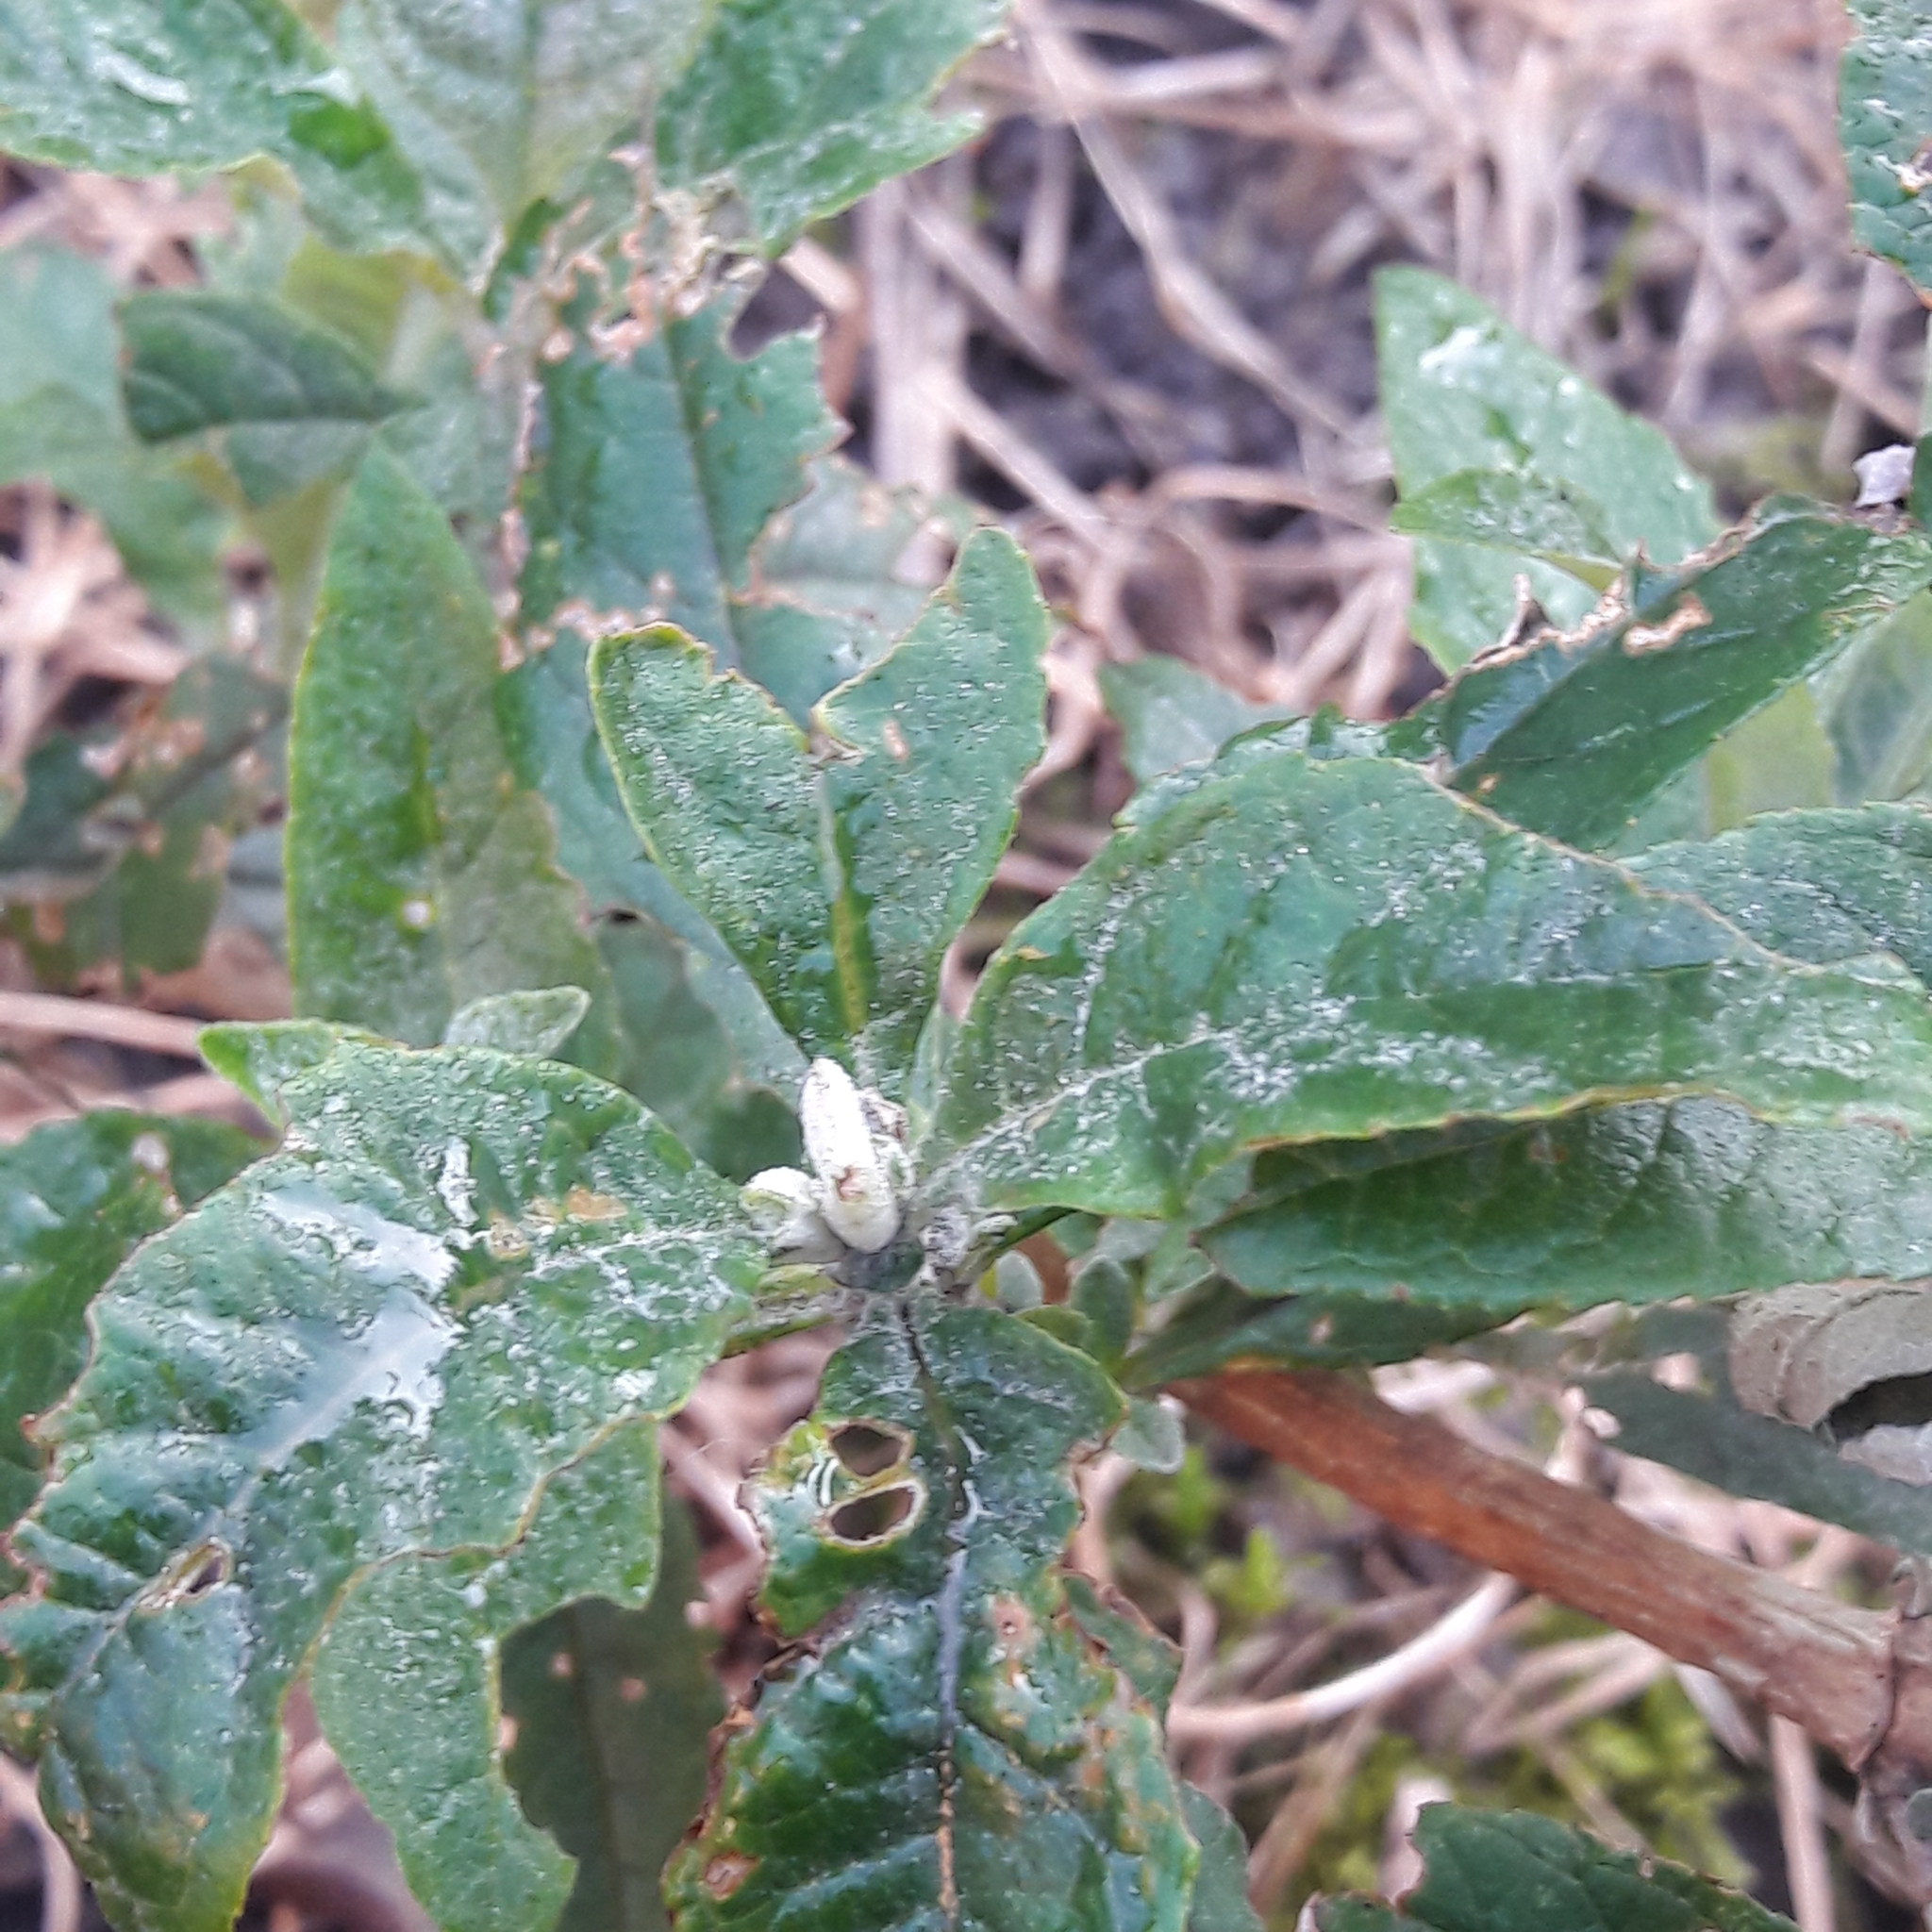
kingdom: Plantae
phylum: Tracheophyta
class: Magnoliopsida
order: Lamiales
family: Scrophulariaceae
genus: Buddleja
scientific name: Buddleja davidii
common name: Butterfly-bush
